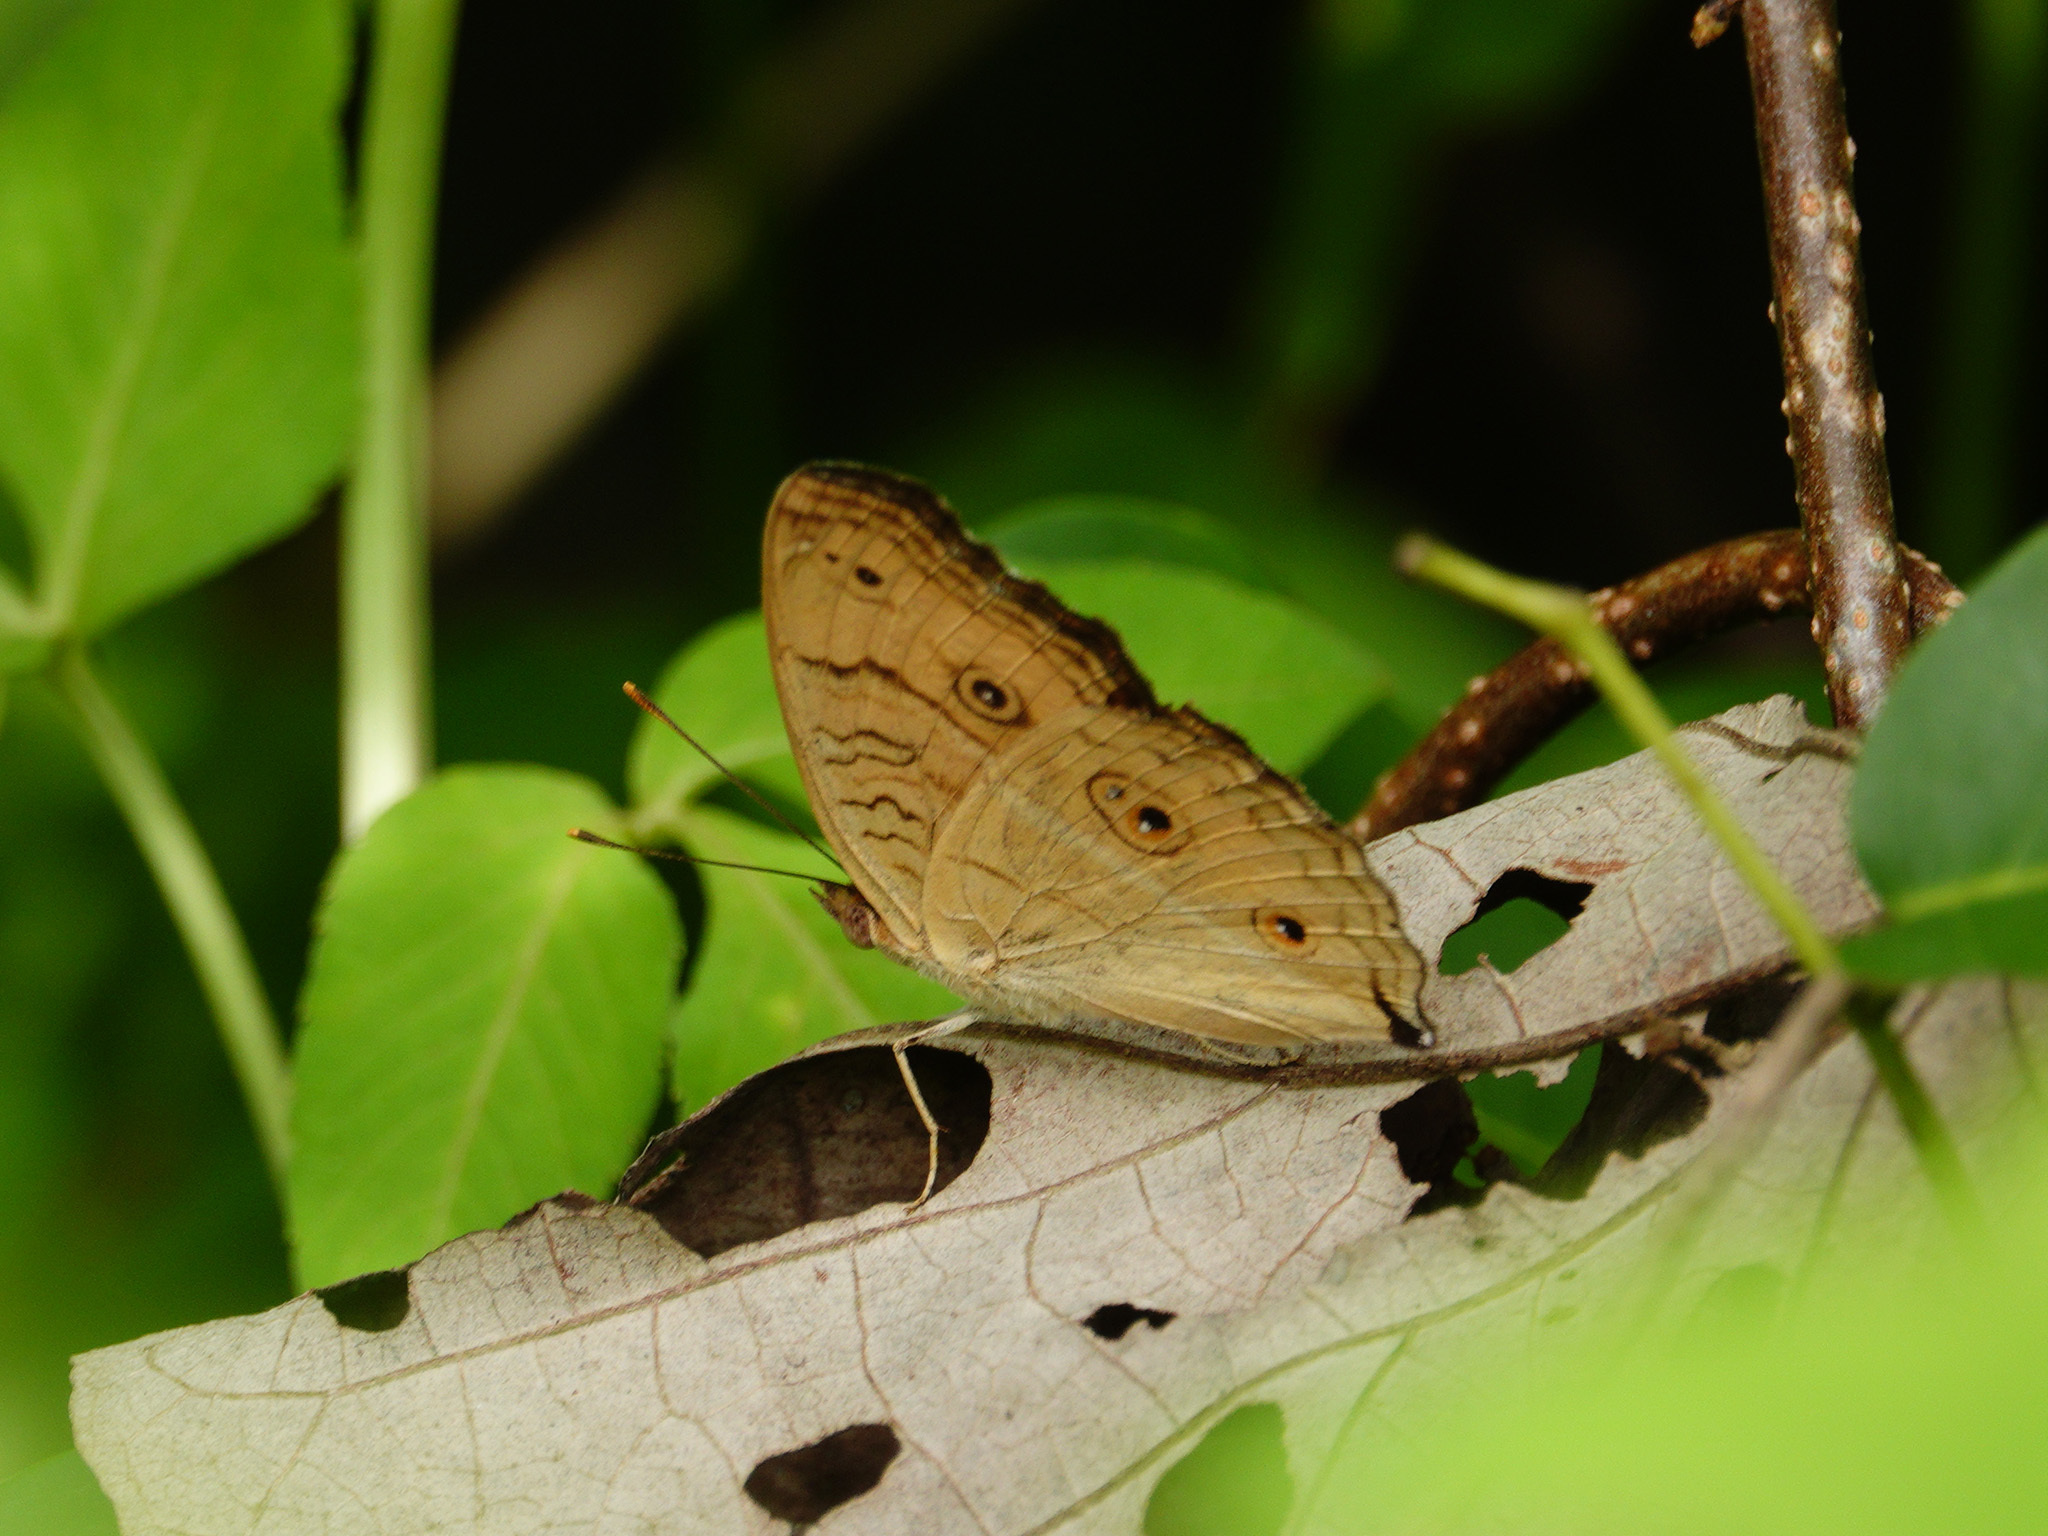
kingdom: Animalia
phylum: Arthropoda
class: Insecta
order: Lepidoptera
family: Nymphalidae
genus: Junonia
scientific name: Junonia almana
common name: Peacock pansy
